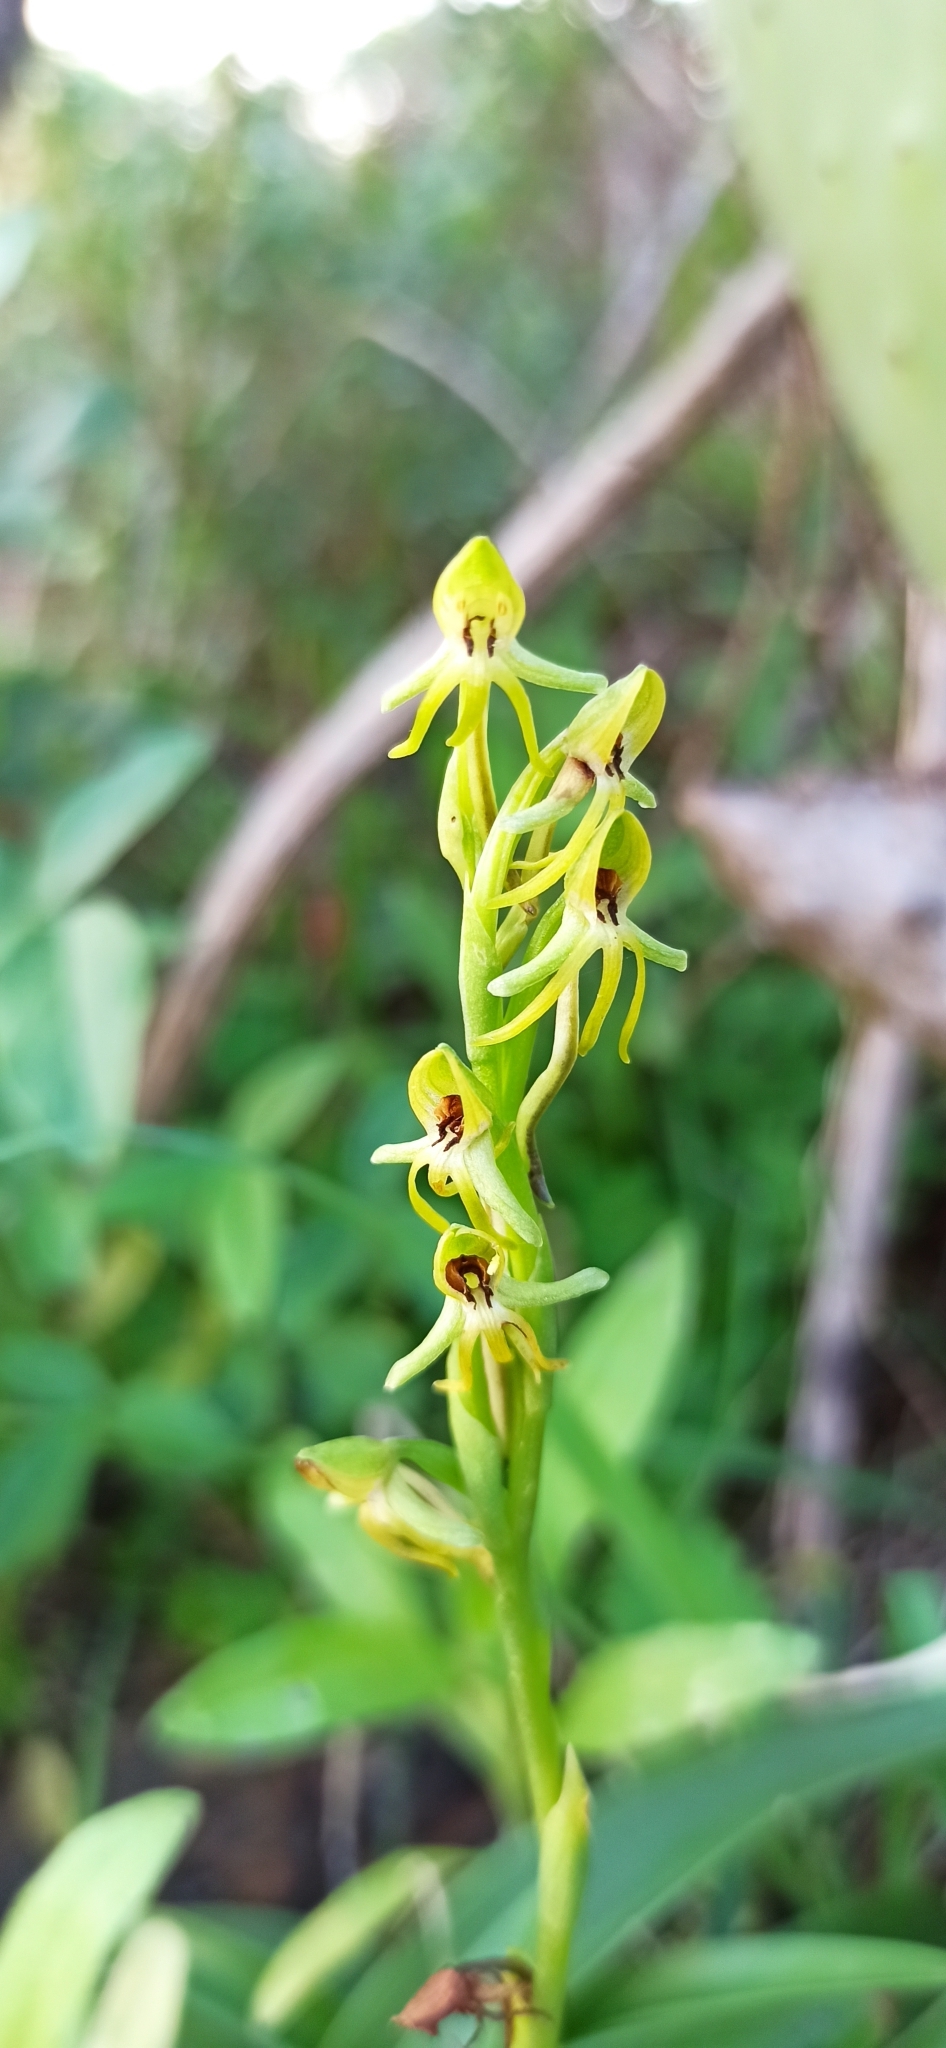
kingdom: Plantae
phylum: Tracheophyta
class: Liliopsida
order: Asparagales
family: Orchidaceae
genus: Habenaria
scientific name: Habenaria tridactylites
